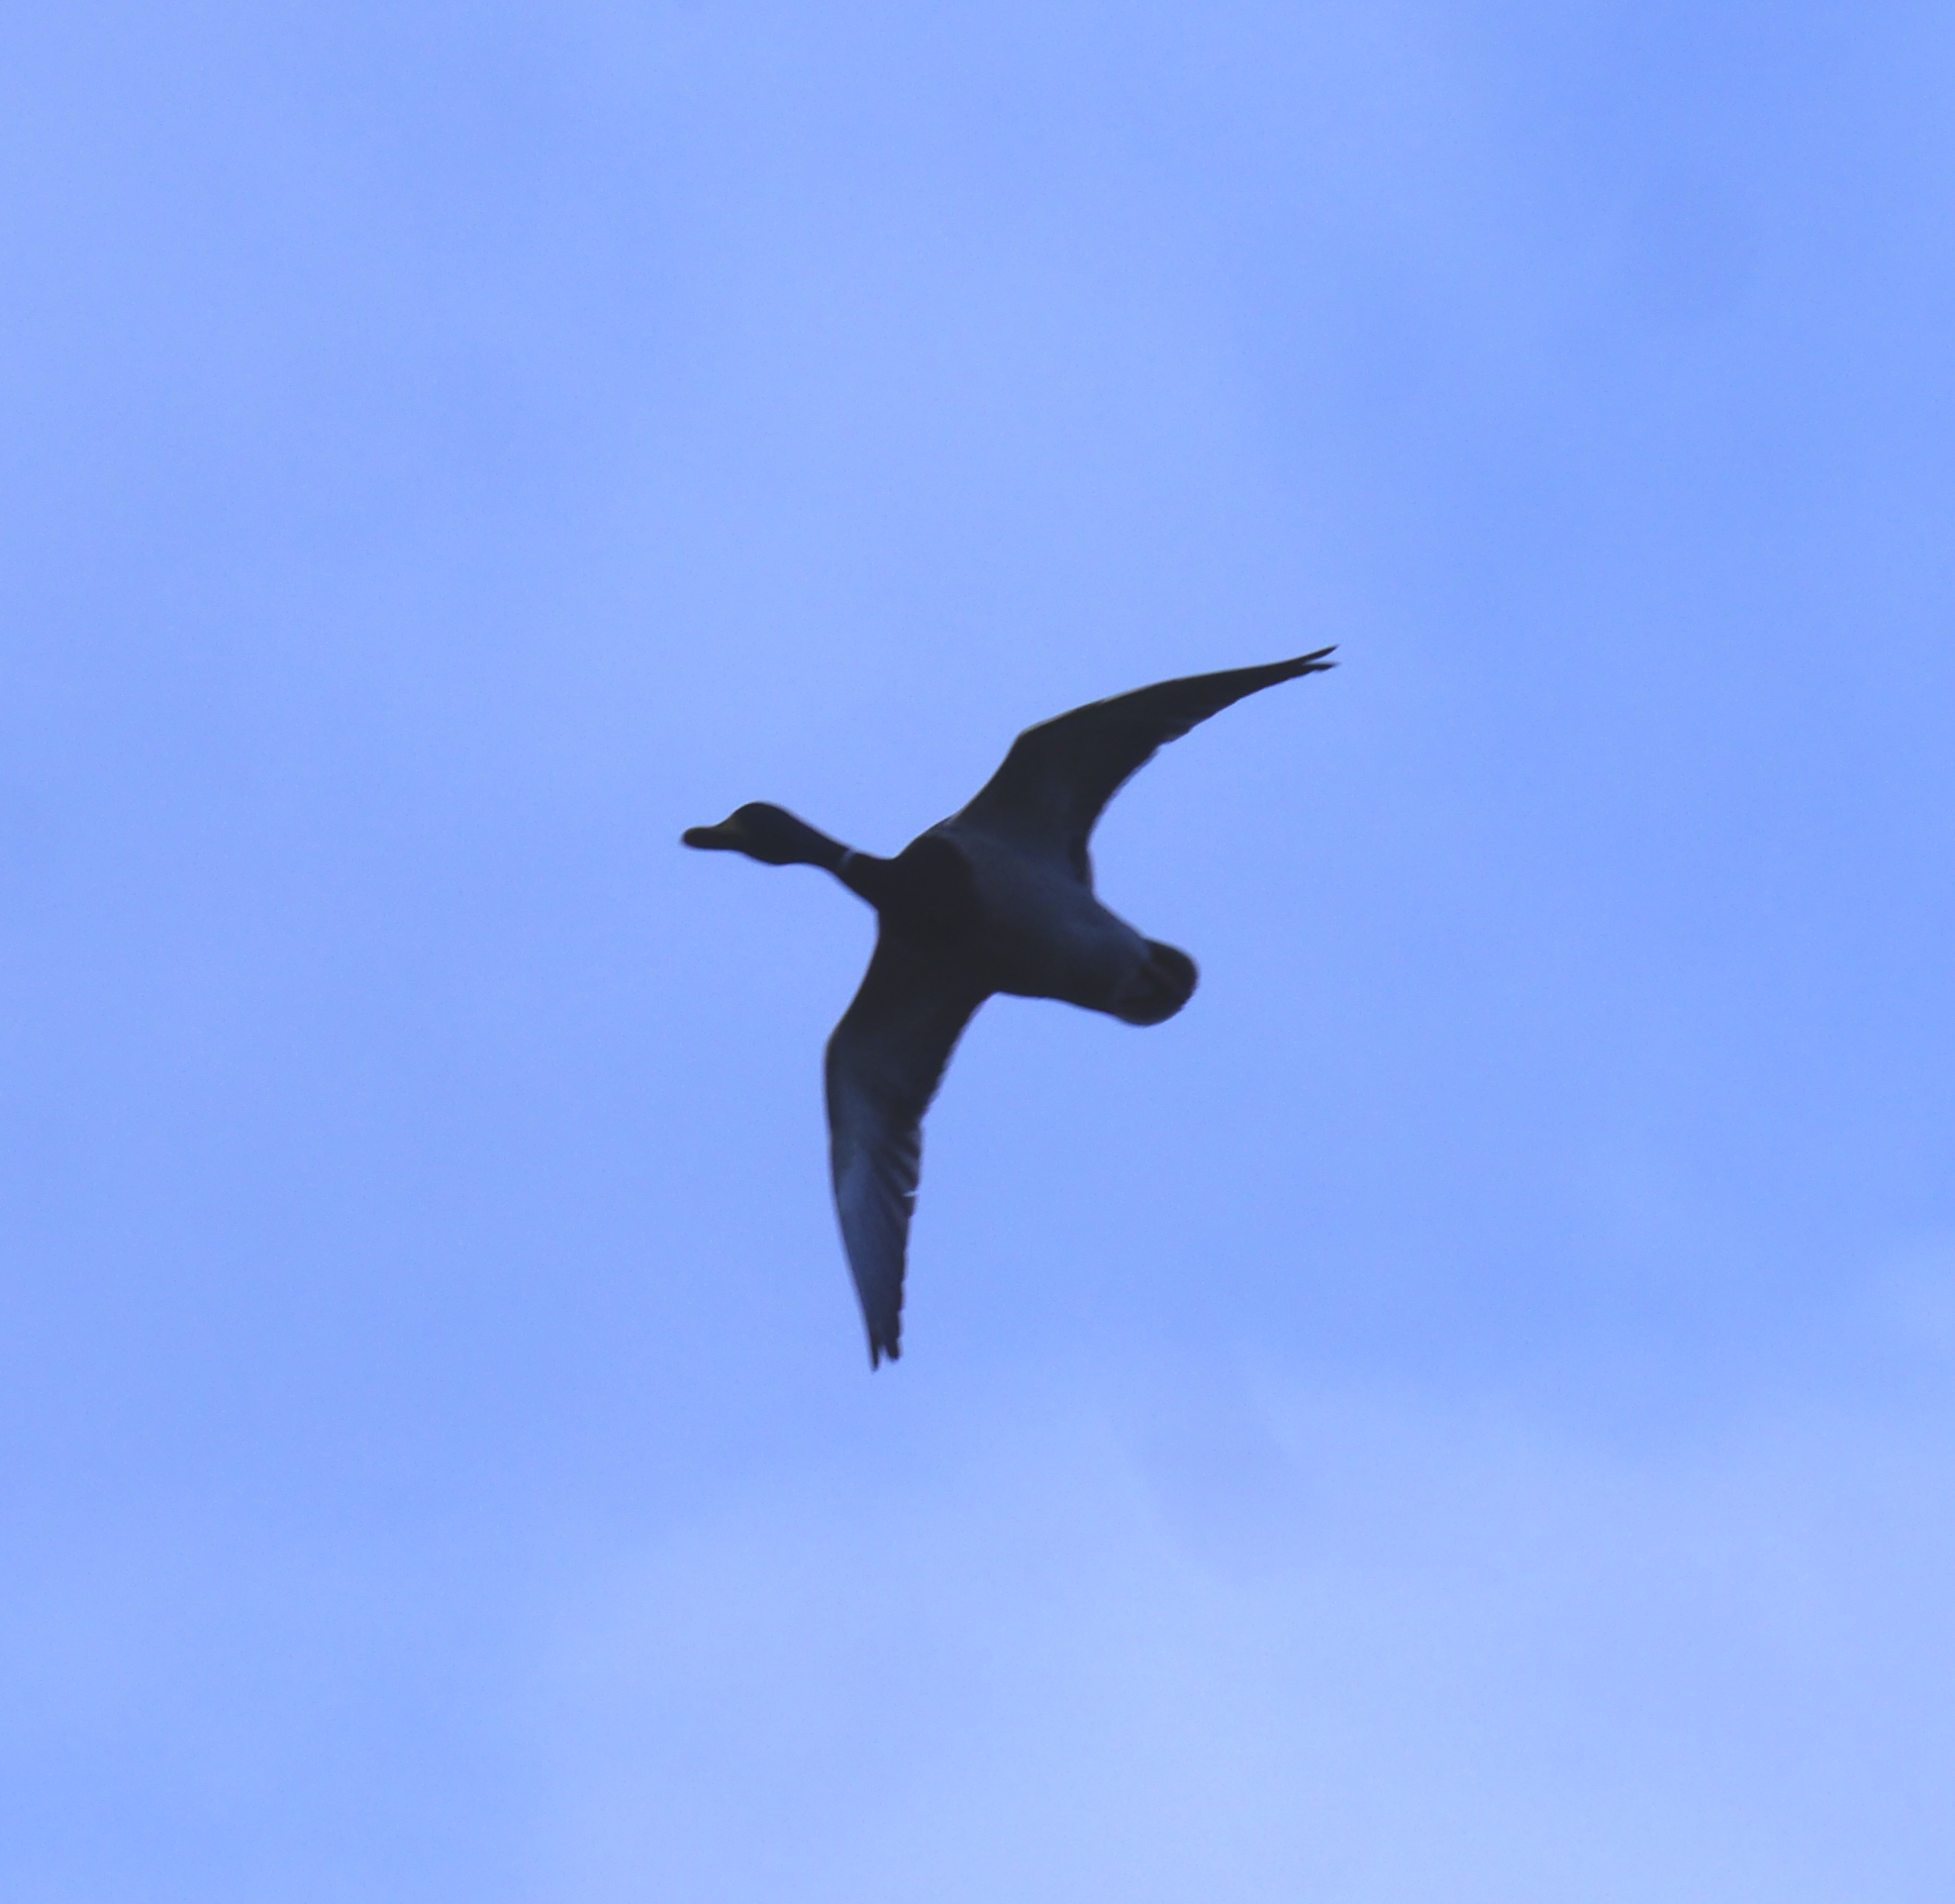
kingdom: Animalia
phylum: Chordata
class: Aves
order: Anseriformes
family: Anatidae
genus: Anas
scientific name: Anas platyrhynchos
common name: Mallard
